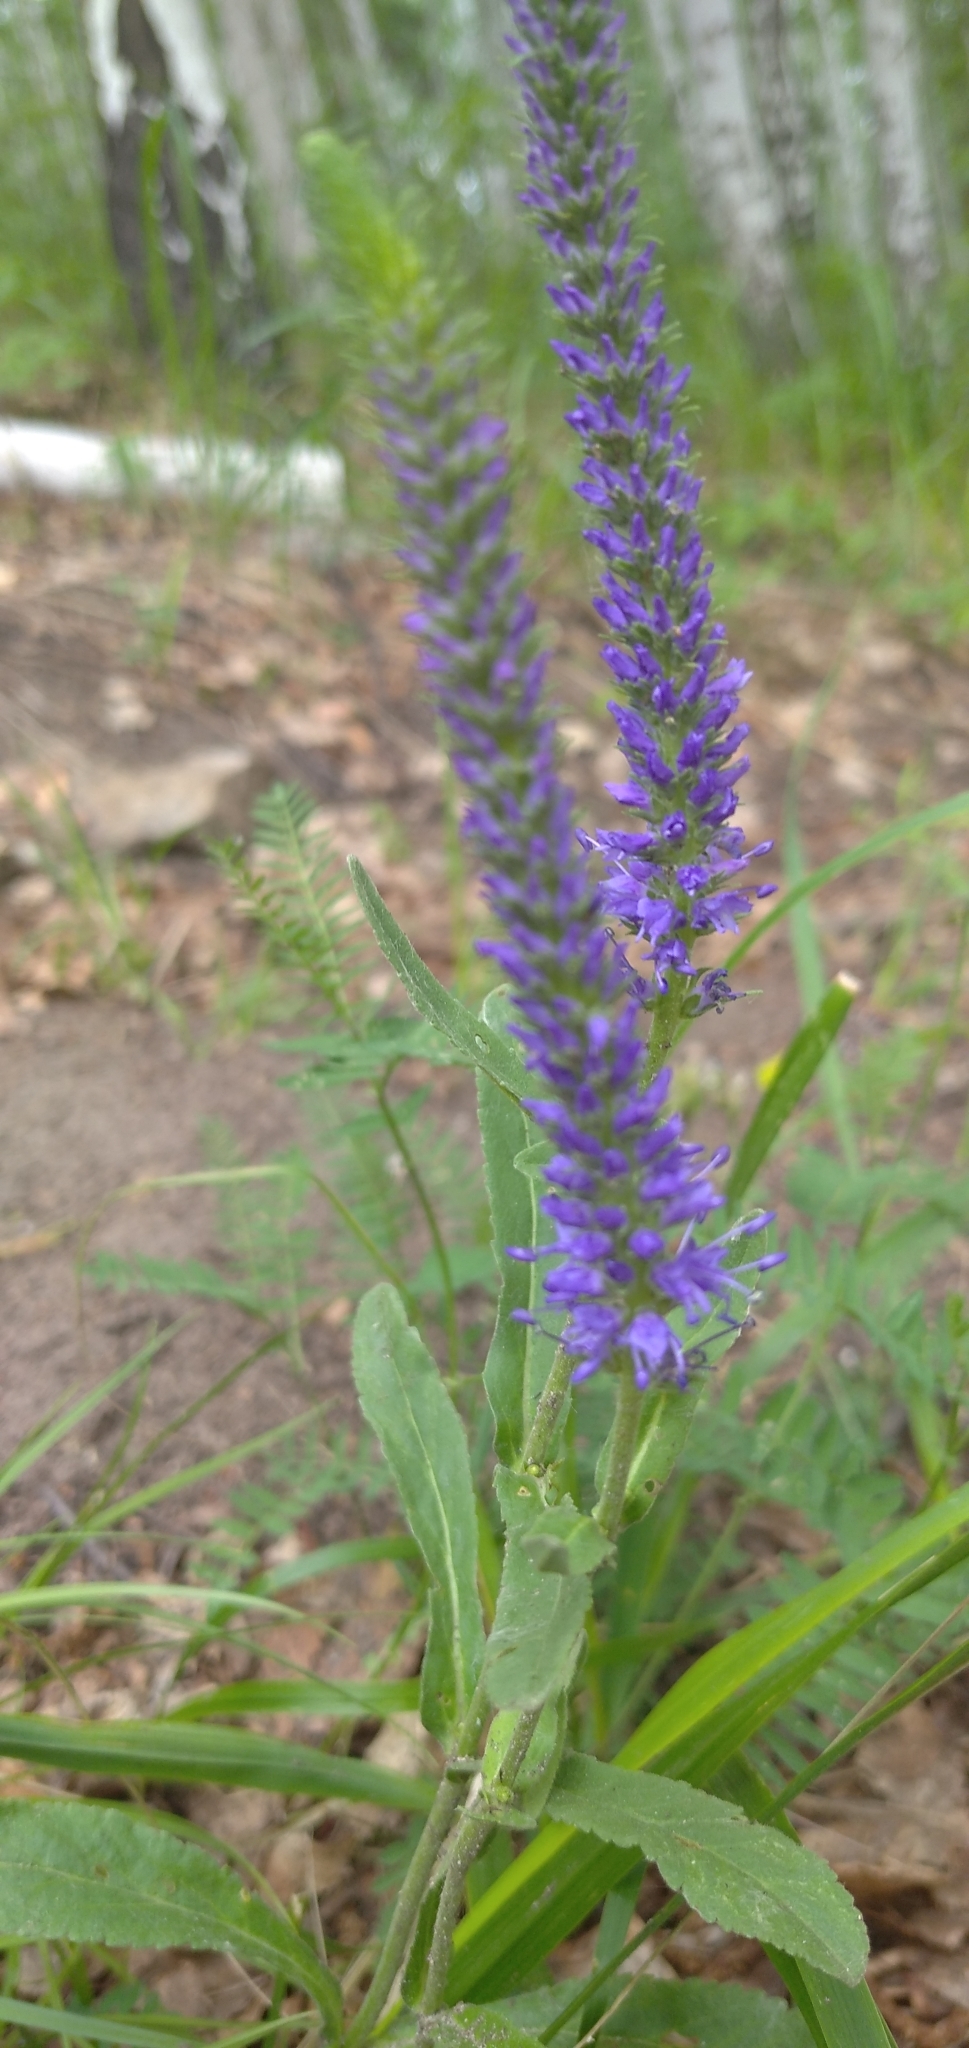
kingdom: Plantae
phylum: Tracheophyta
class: Magnoliopsida
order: Lamiales
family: Plantaginaceae
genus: Veronica
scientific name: Veronica spicata
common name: Spiked speedwell
